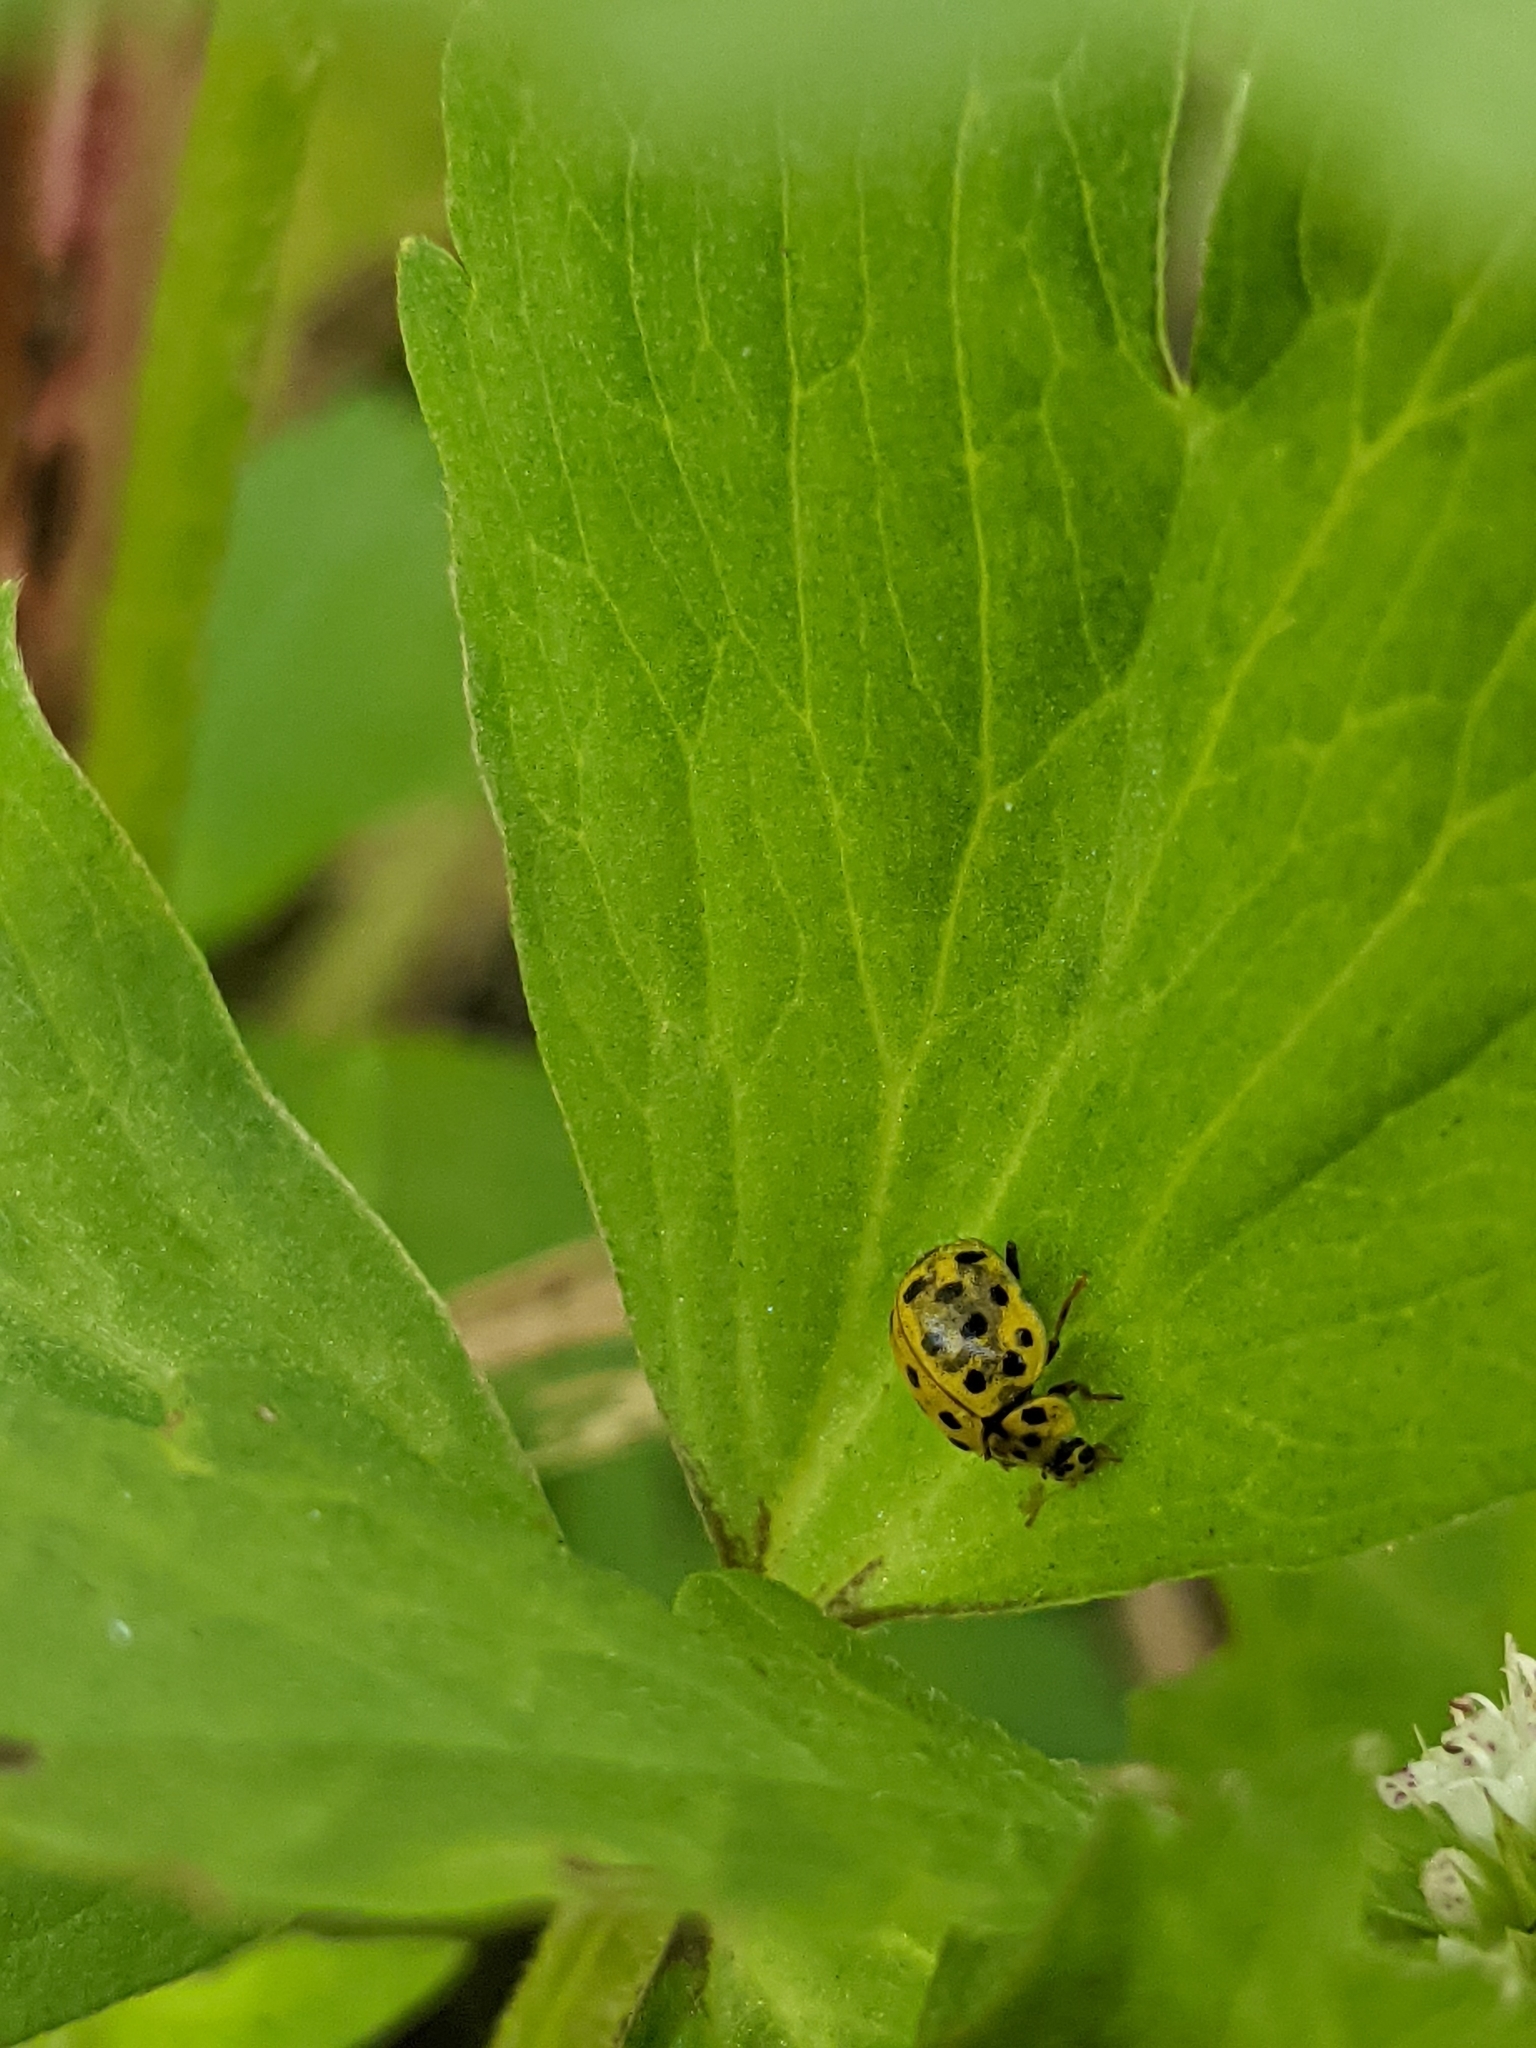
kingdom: Animalia
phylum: Arthropoda
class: Insecta
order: Coleoptera
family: Coccinellidae
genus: Psyllobora
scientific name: Psyllobora vigintiduopunctata
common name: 22-spot ladybird
